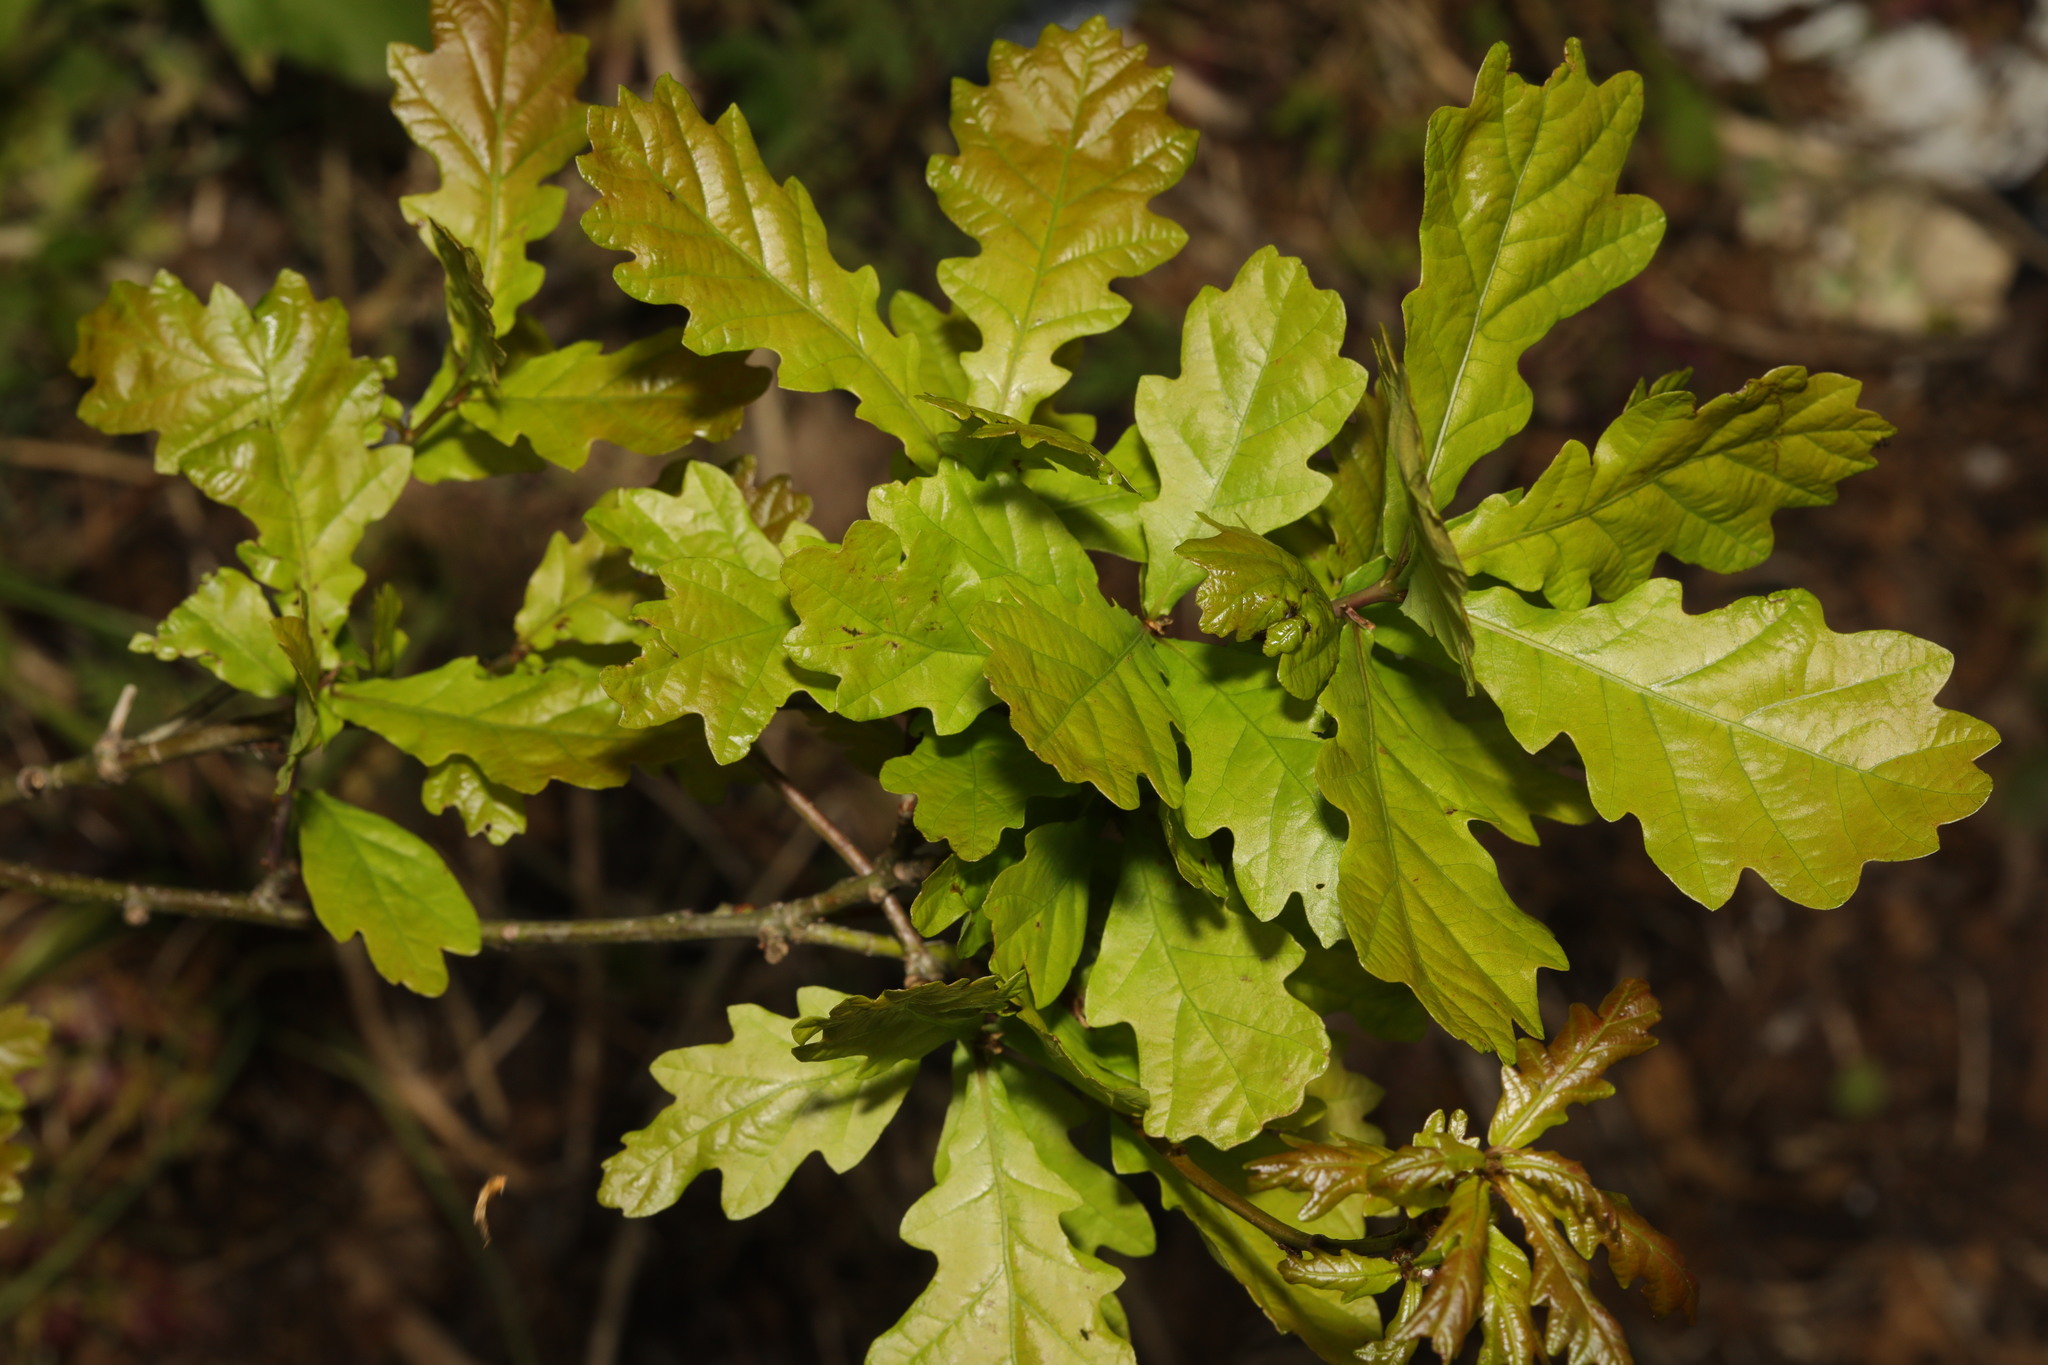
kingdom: Plantae
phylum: Tracheophyta
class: Magnoliopsida
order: Fagales
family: Fagaceae
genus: Quercus
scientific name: Quercus petraea
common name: Sessile oak
